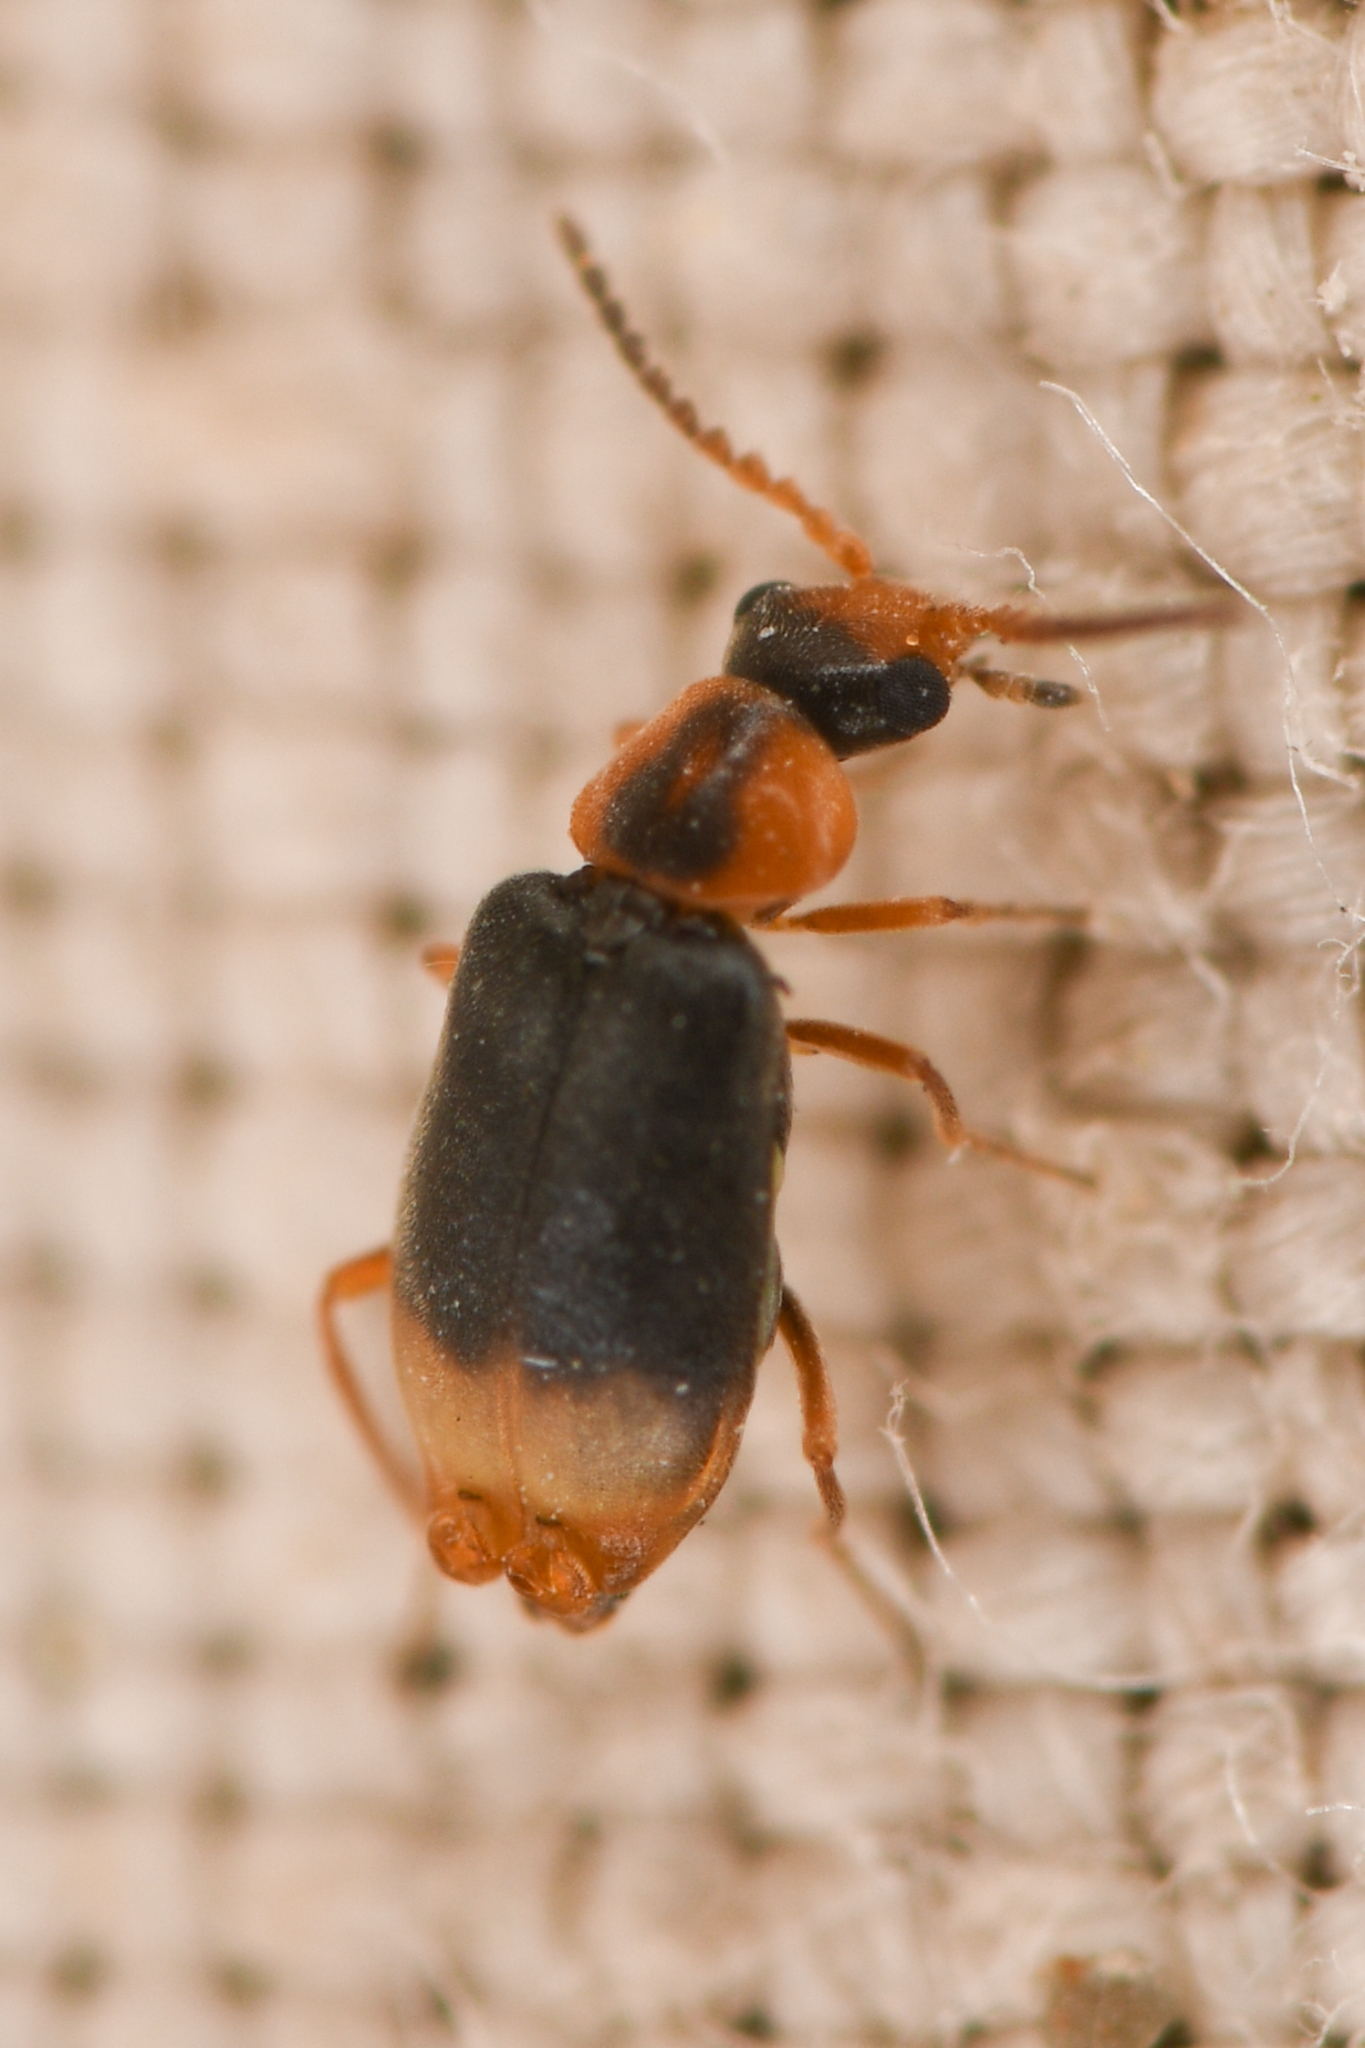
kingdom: Animalia
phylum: Arthropoda
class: Insecta
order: Coleoptera
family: Melyridae
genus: Hypebaeus
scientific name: Hypebaeus bicolor
